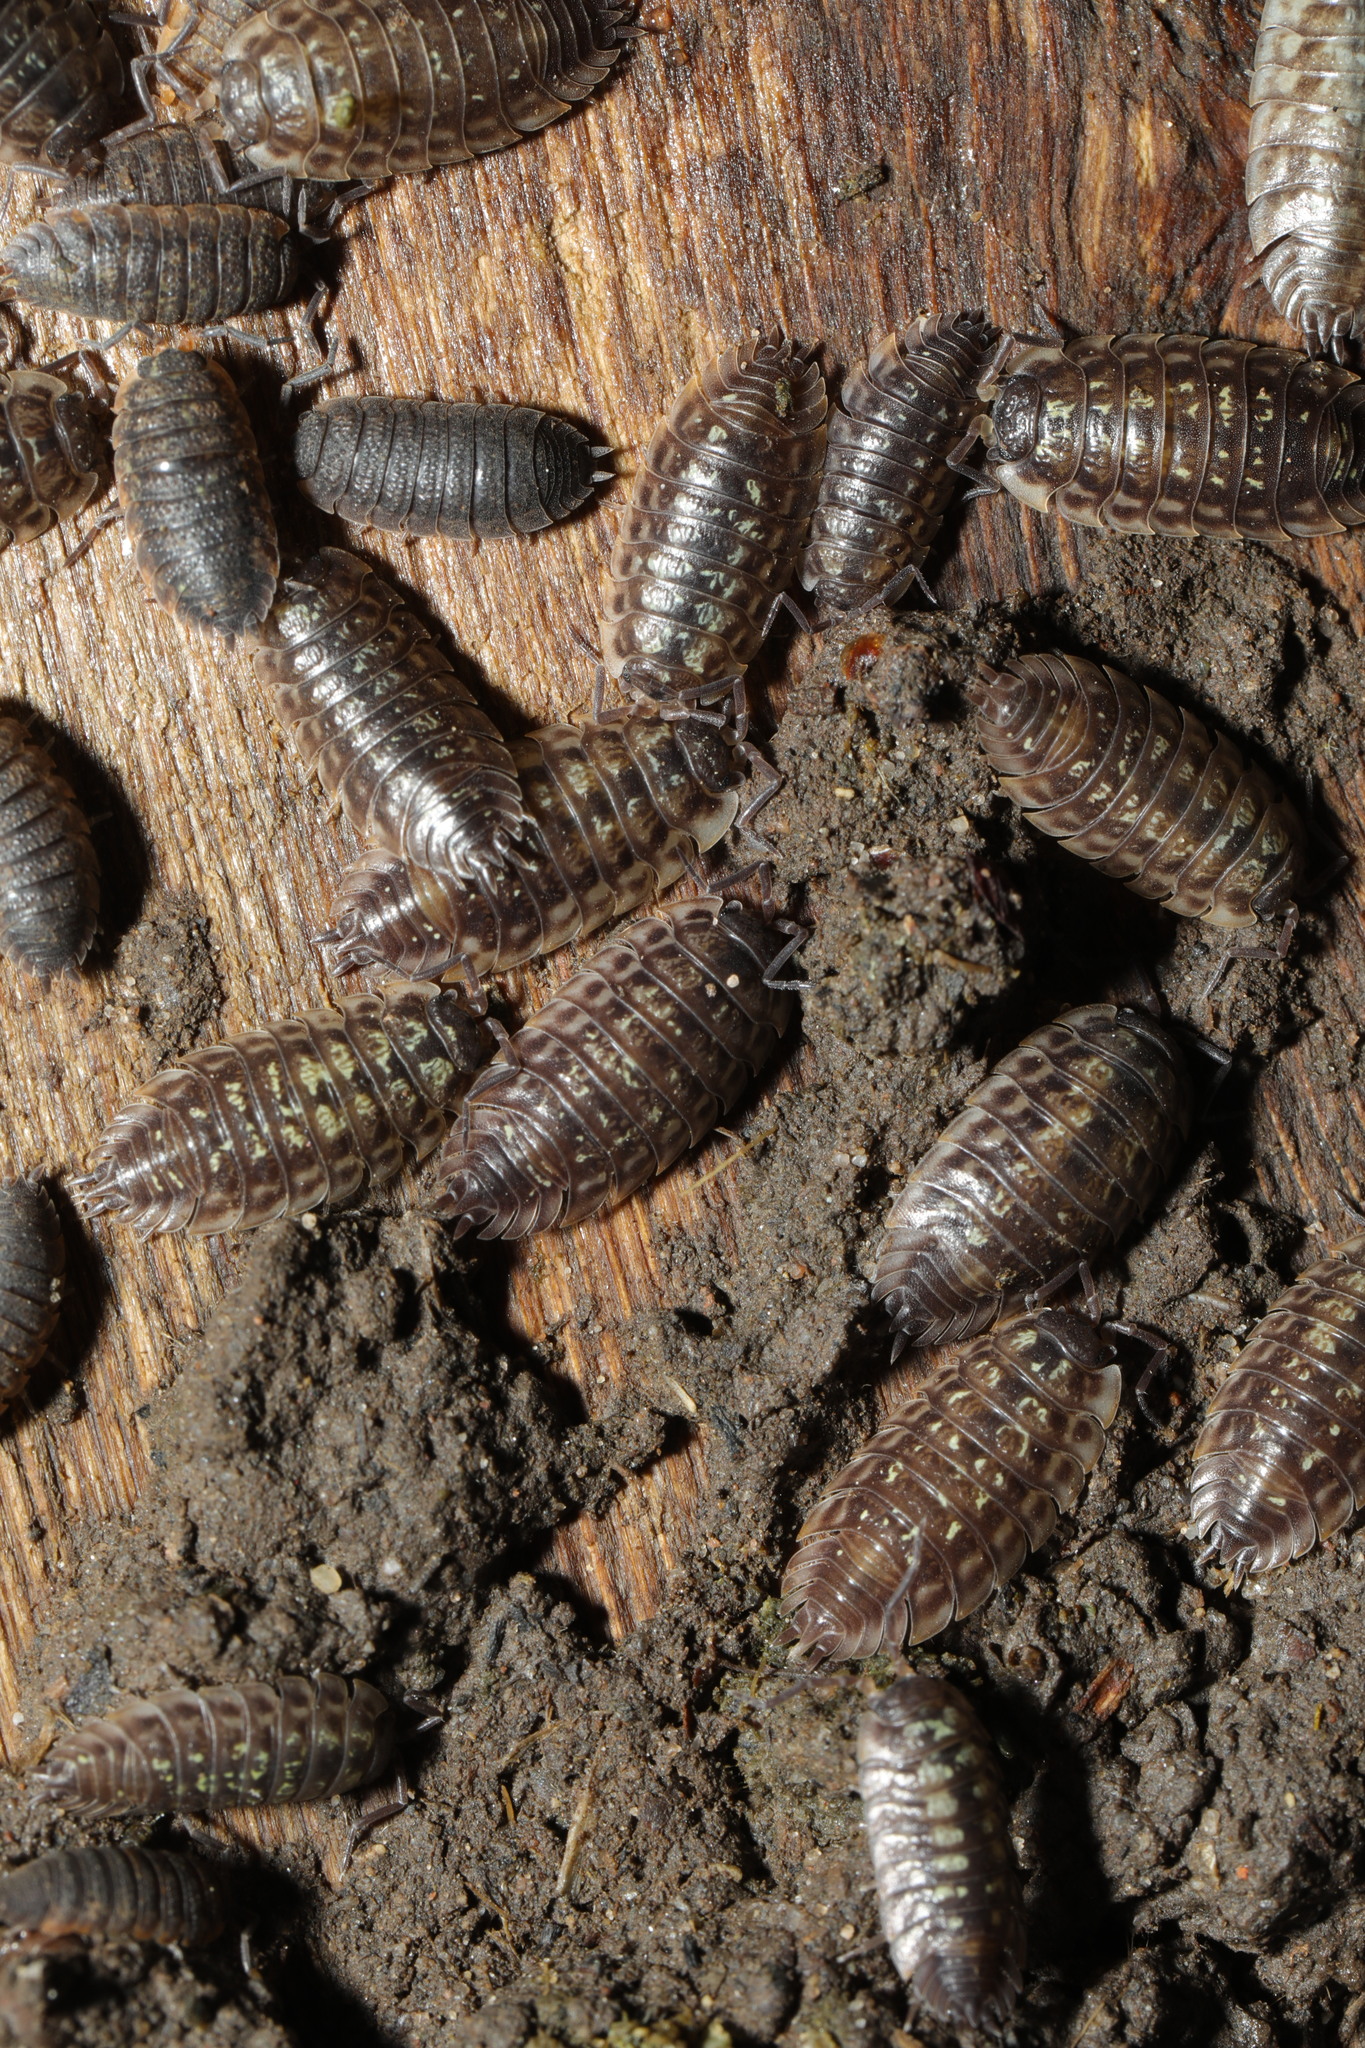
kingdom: Animalia
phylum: Arthropoda
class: Malacostraca
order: Isopoda
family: Oniscidae
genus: Oniscus
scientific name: Oniscus asellus
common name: Common shiny woodlouse
